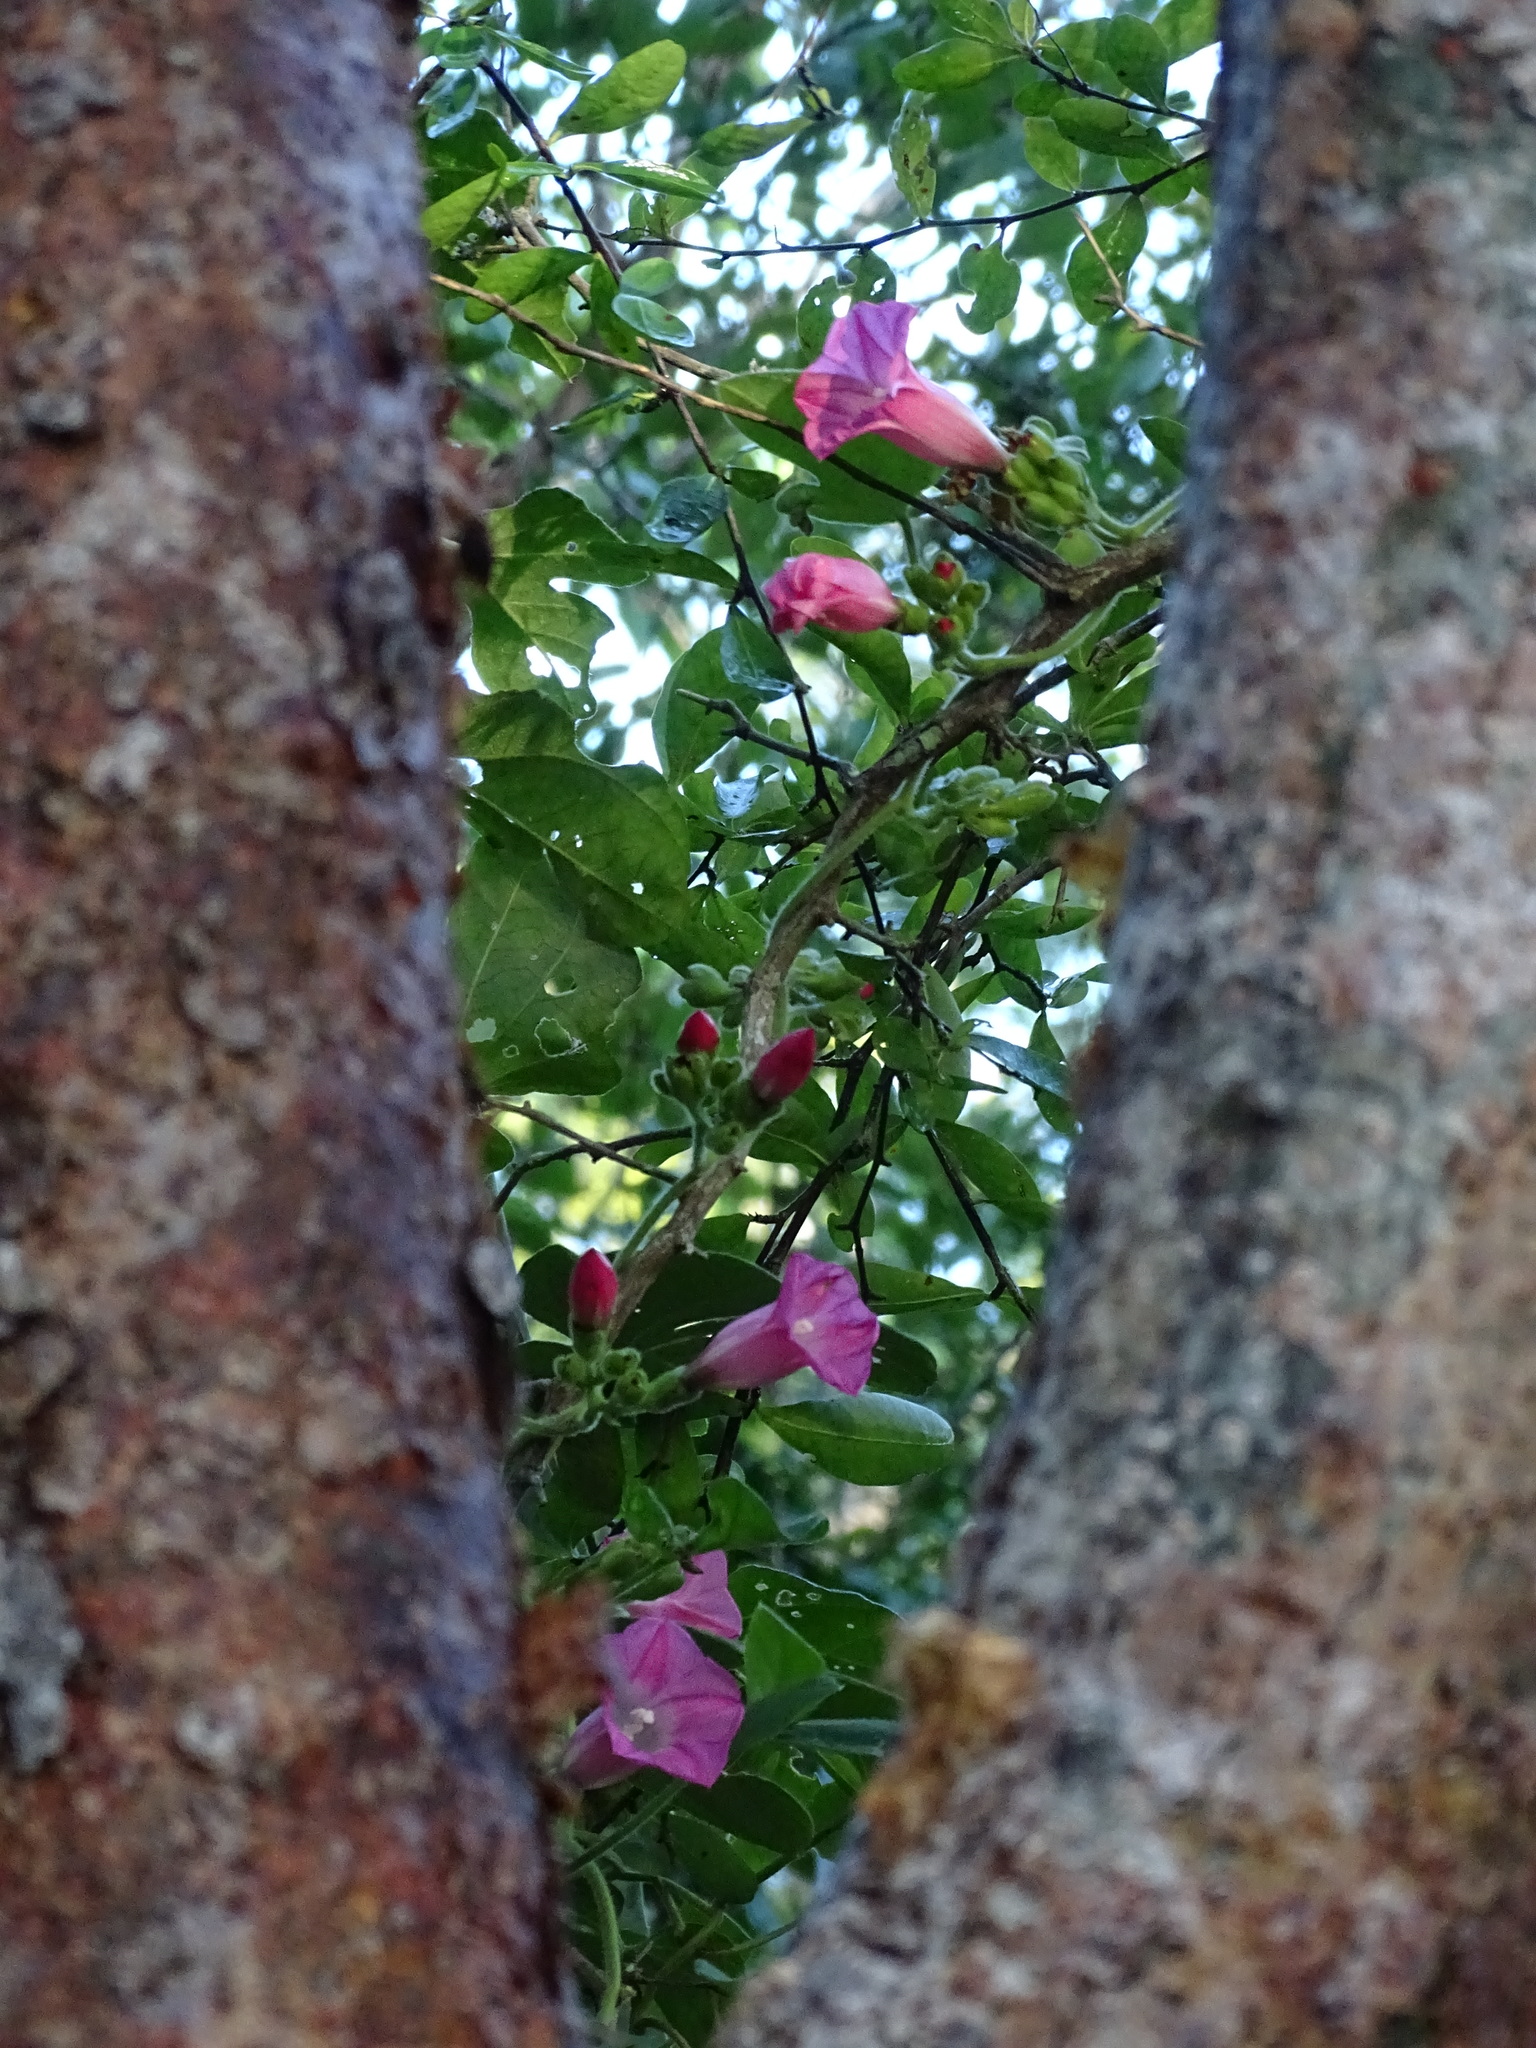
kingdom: Plantae
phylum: Tracheophyta
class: Magnoliopsida
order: Solanales
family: Convolvulaceae
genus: Ipomoea
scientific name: Ipomoea peteri
